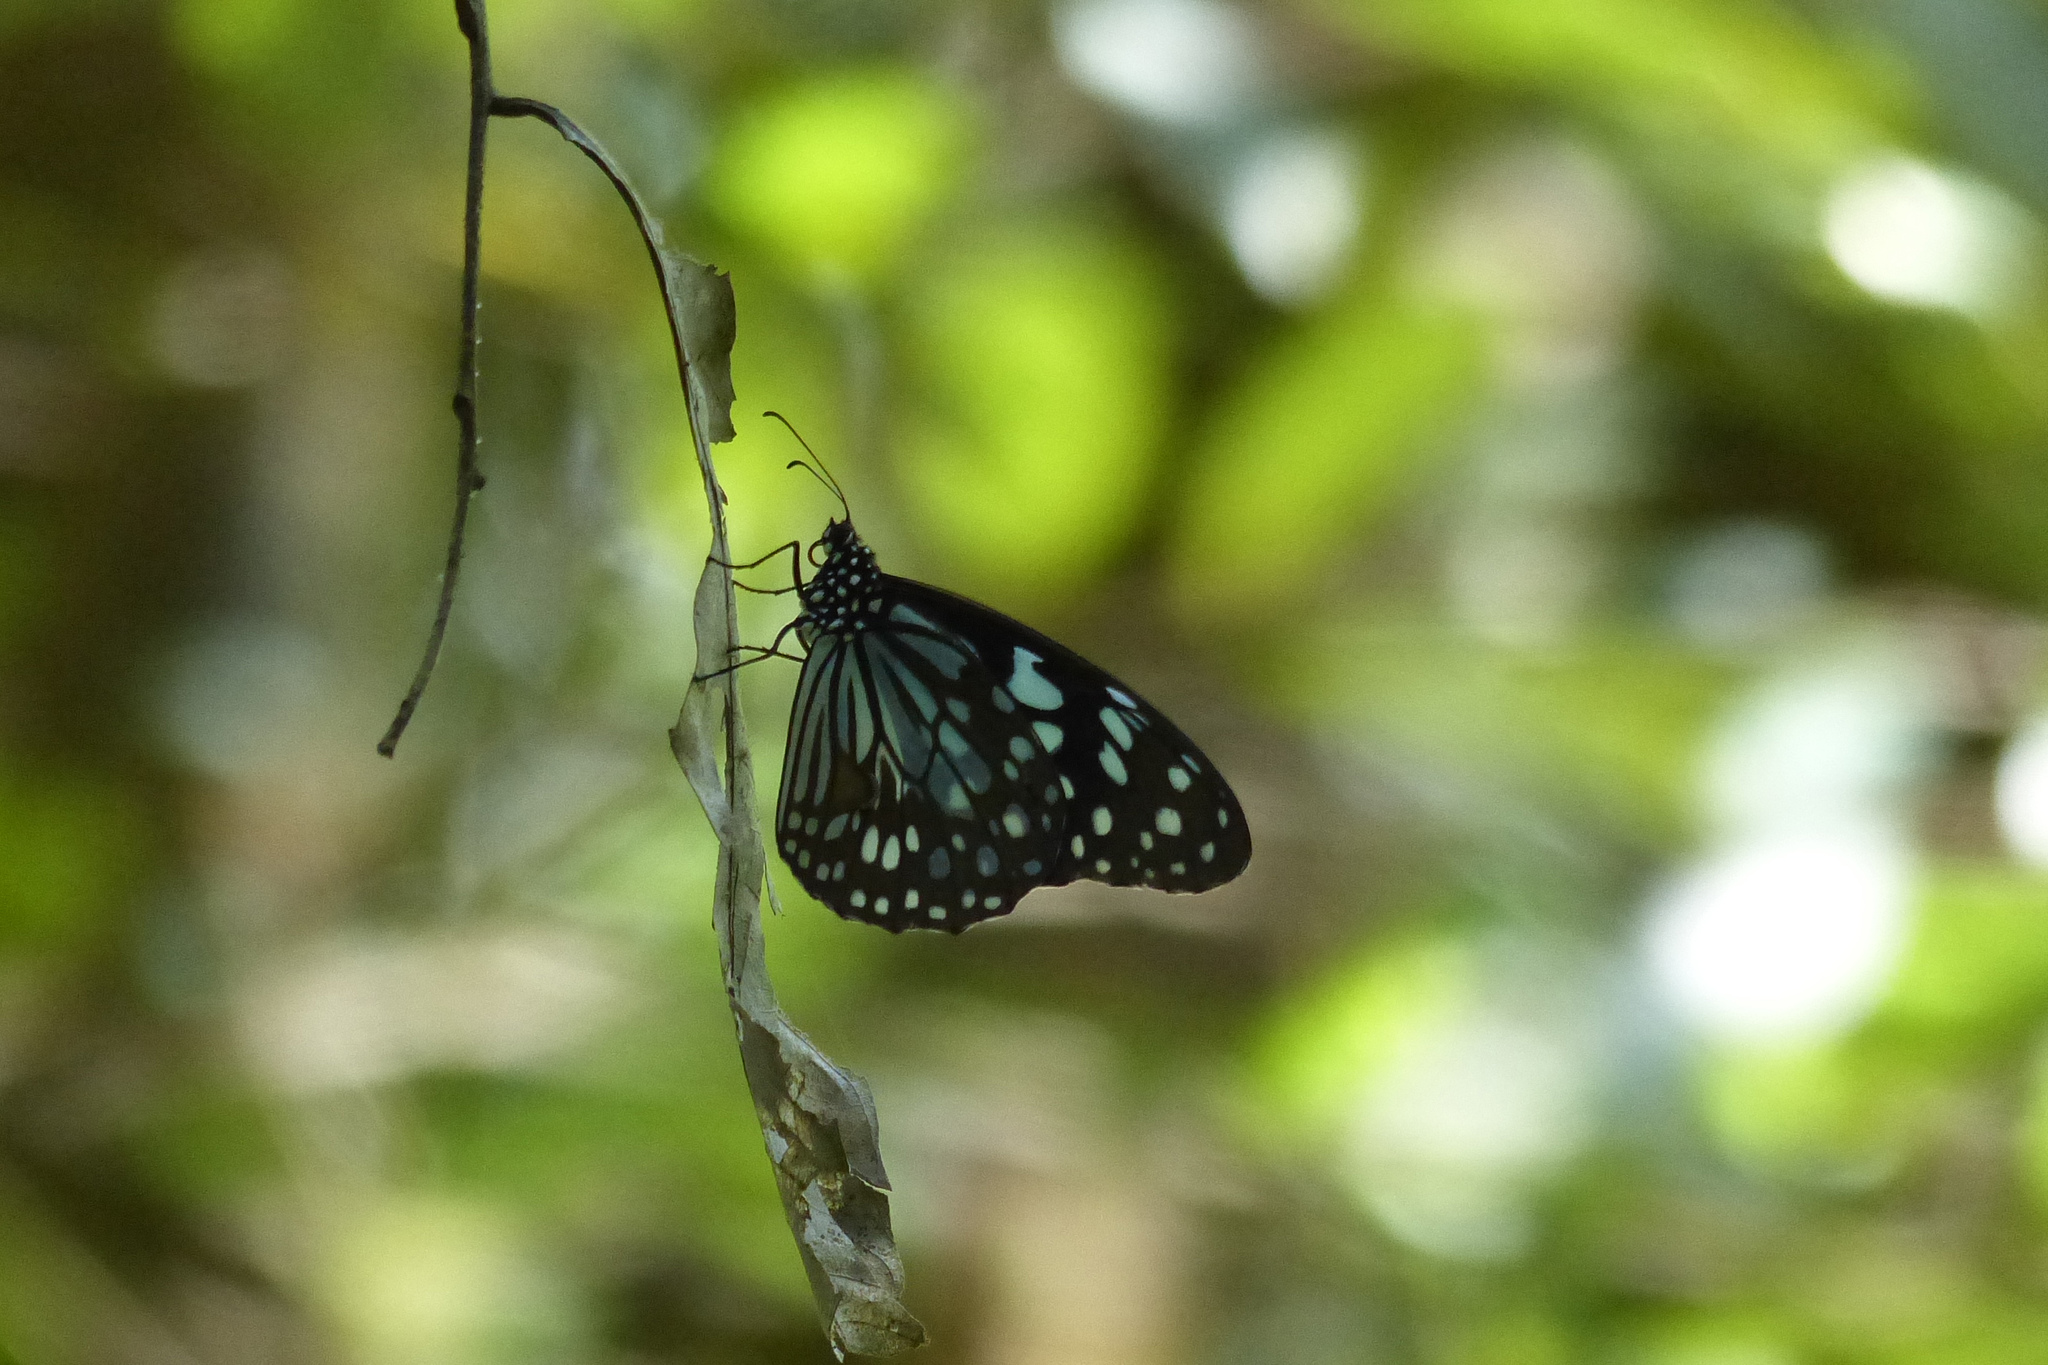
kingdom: Animalia
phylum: Arthropoda
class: Insecta
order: Lepidoptera
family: Nymphalidae
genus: Tirumala
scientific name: Tirumala limniace
